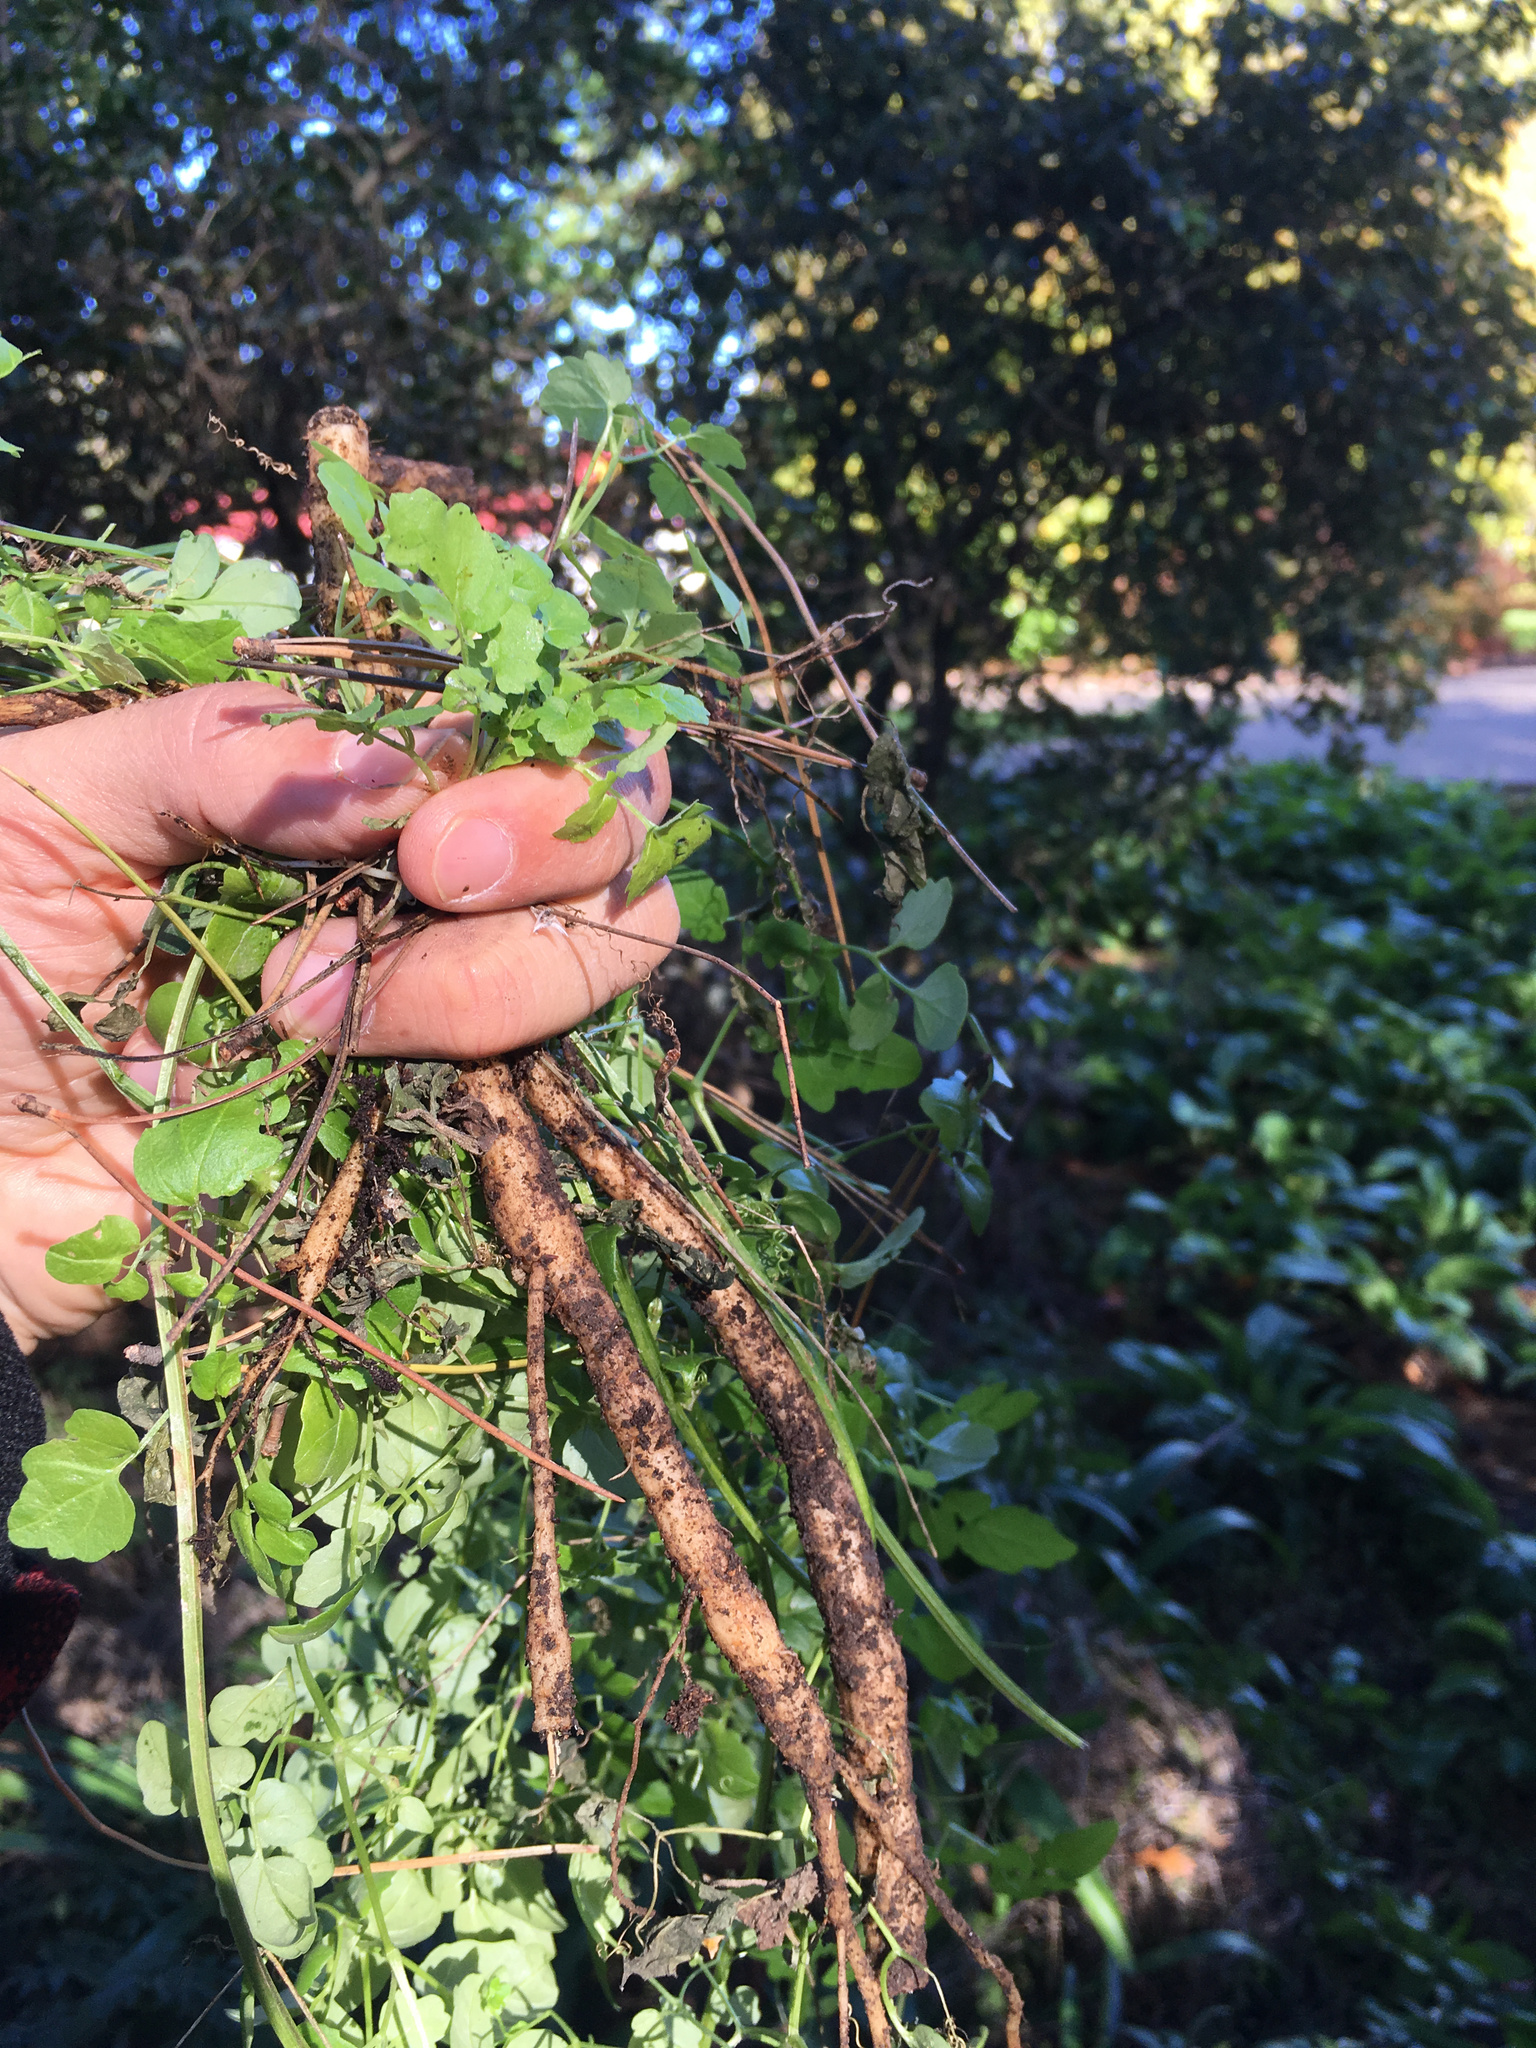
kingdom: Plantae
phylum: Tracheophyta
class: Magnoliopsida
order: Lamiales
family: Bignoniaceae
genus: Eccremocarpus
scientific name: Eccremocarpus scaber
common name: Chilean glory-flower
